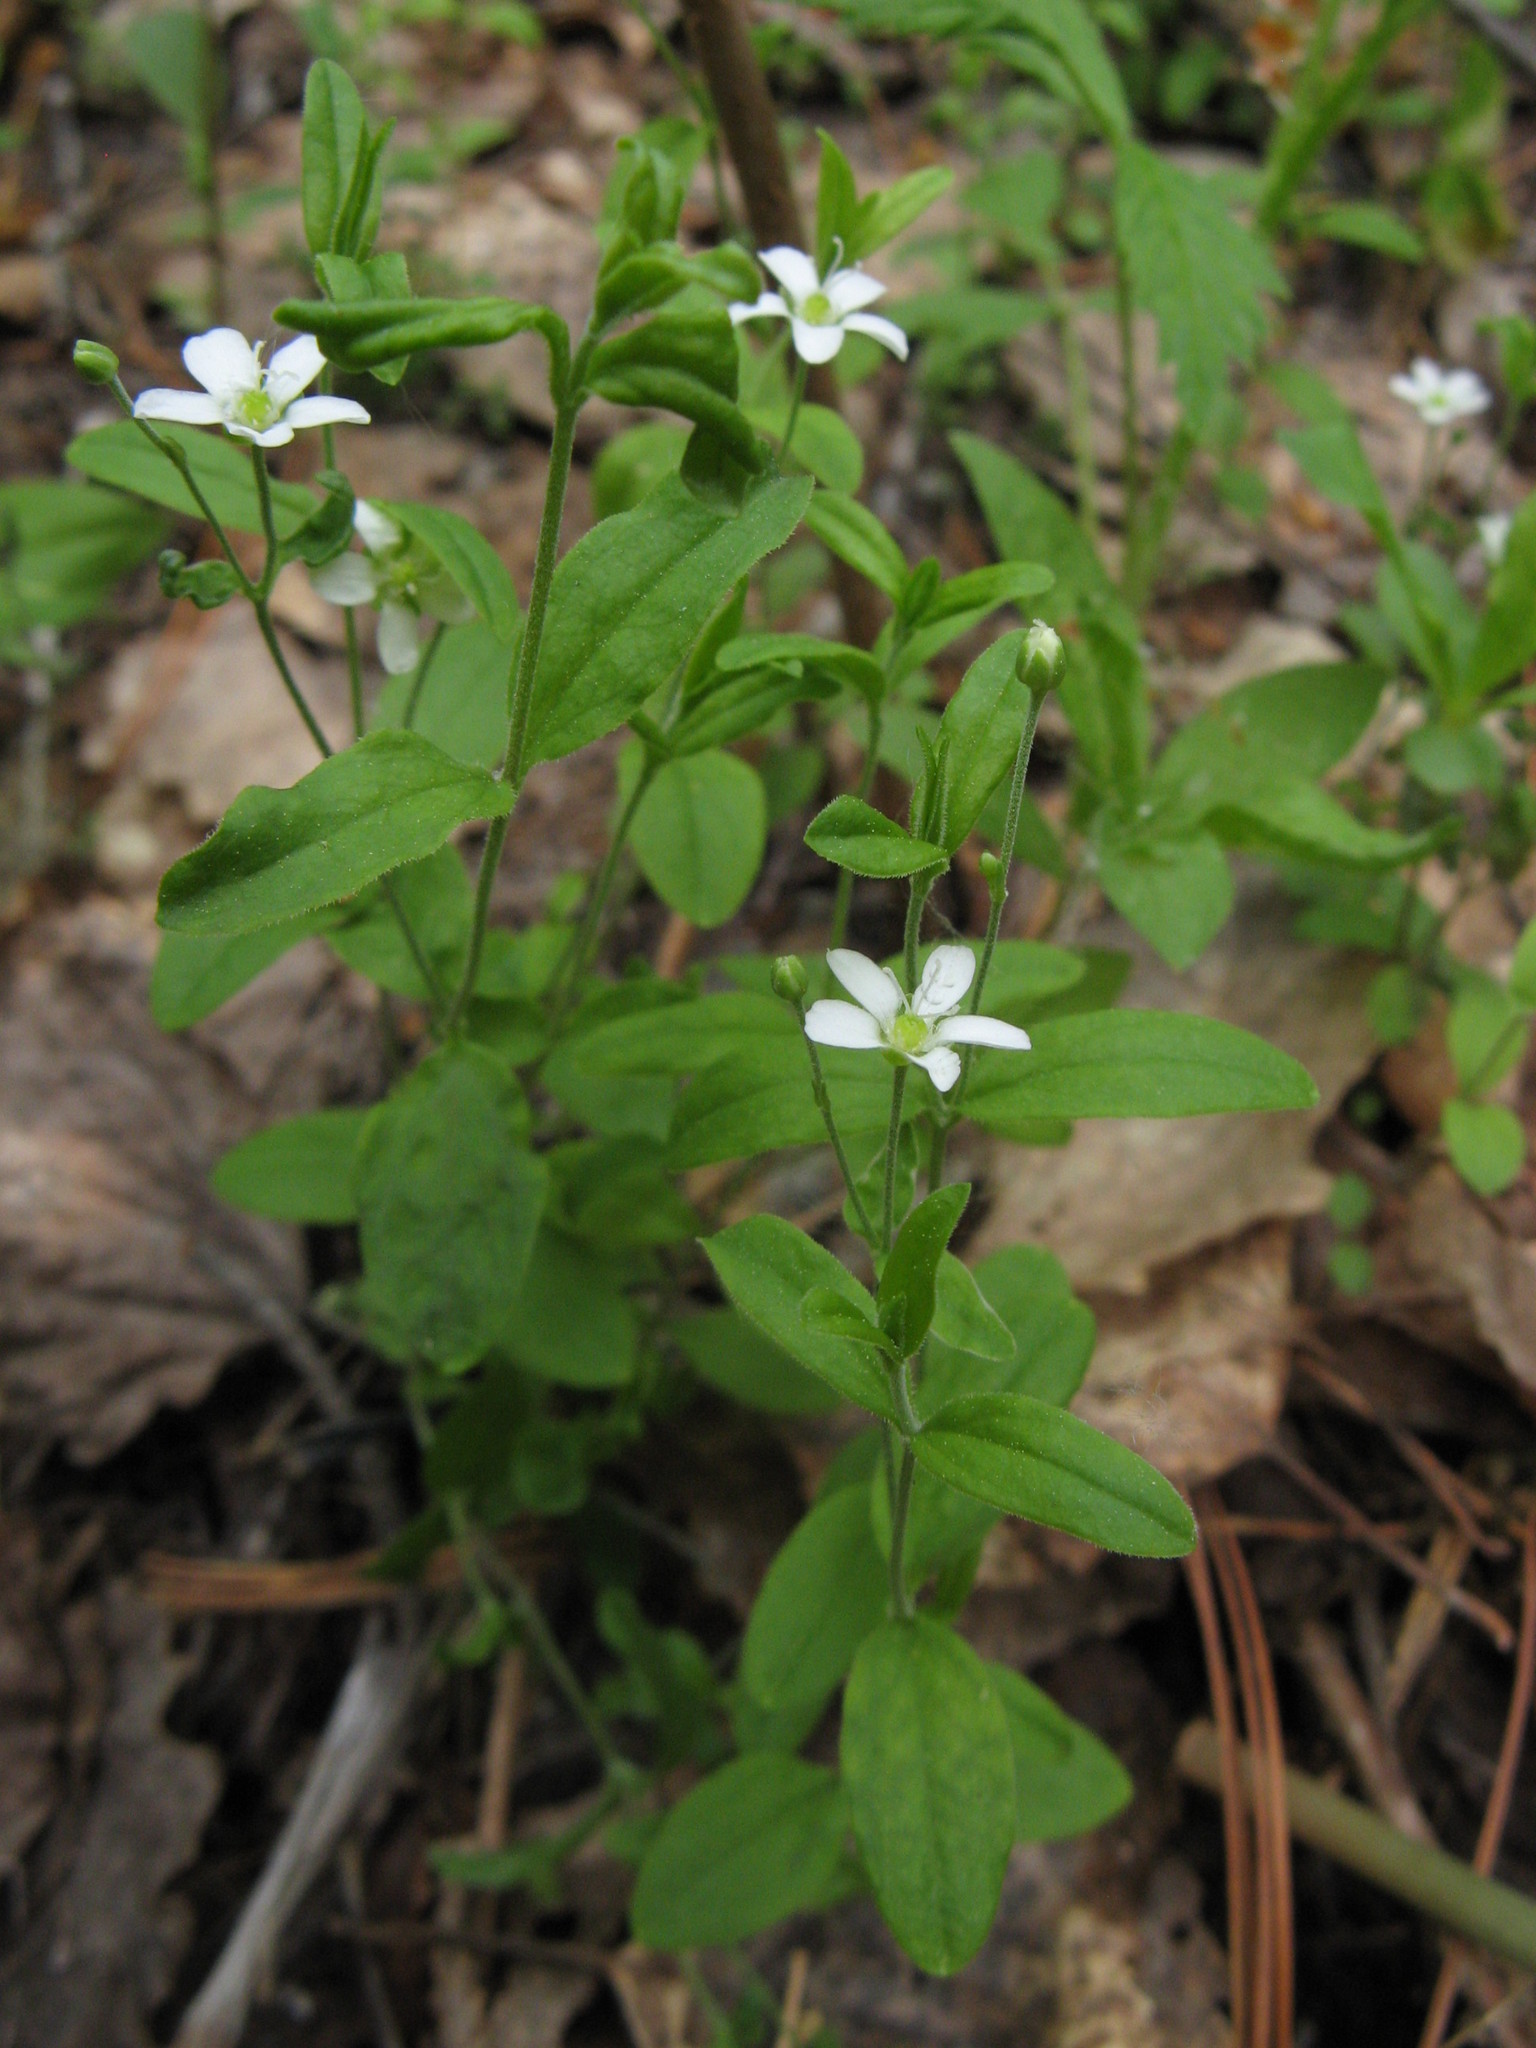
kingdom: Plantae
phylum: Tracheophyta
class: Magnoliopsida
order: Caryophyllales
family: Caryophyllaceae
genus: Moehringia
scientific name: Moehringia lateriflora
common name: Blunt-leaved sandwort
